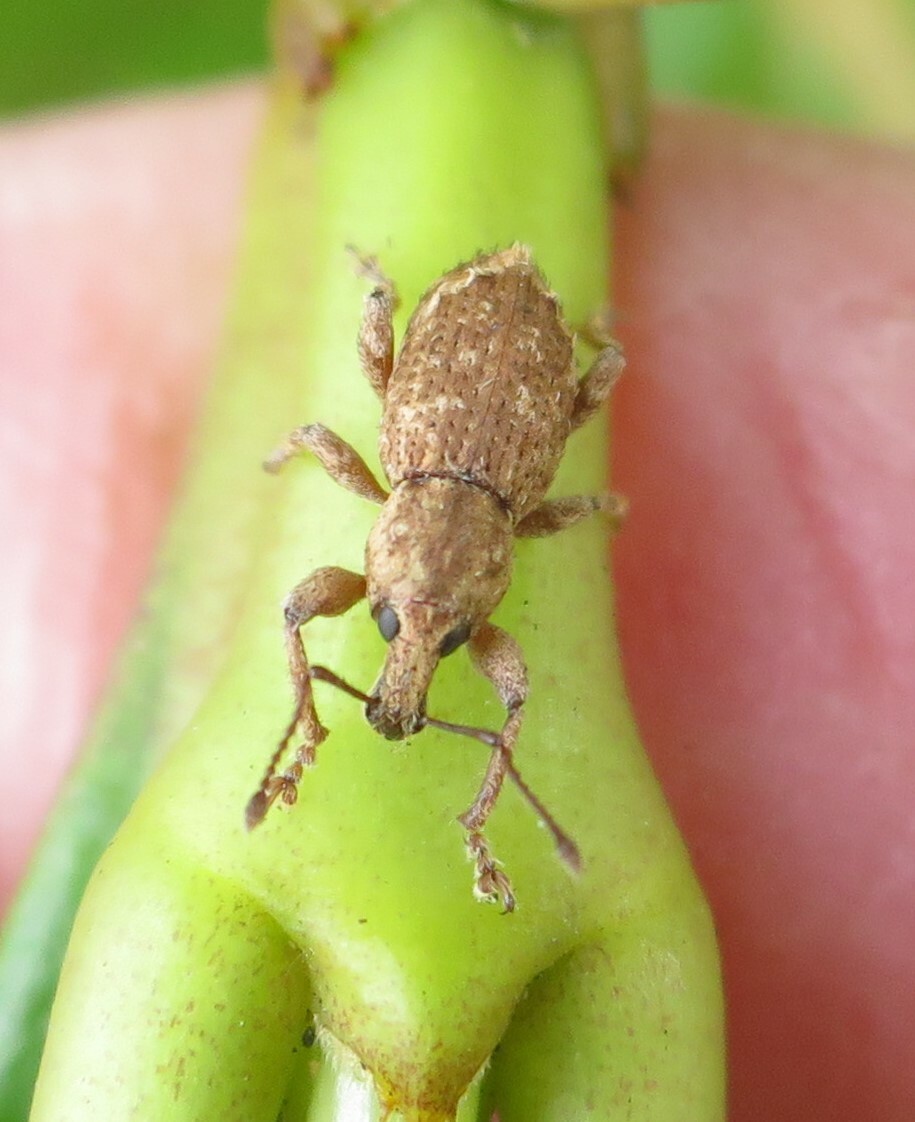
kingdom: Animalia
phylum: Arthropoda
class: Insecta
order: Coleoptera
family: Curculionidae
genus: Chalepistes
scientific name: Chalepistes compressus
